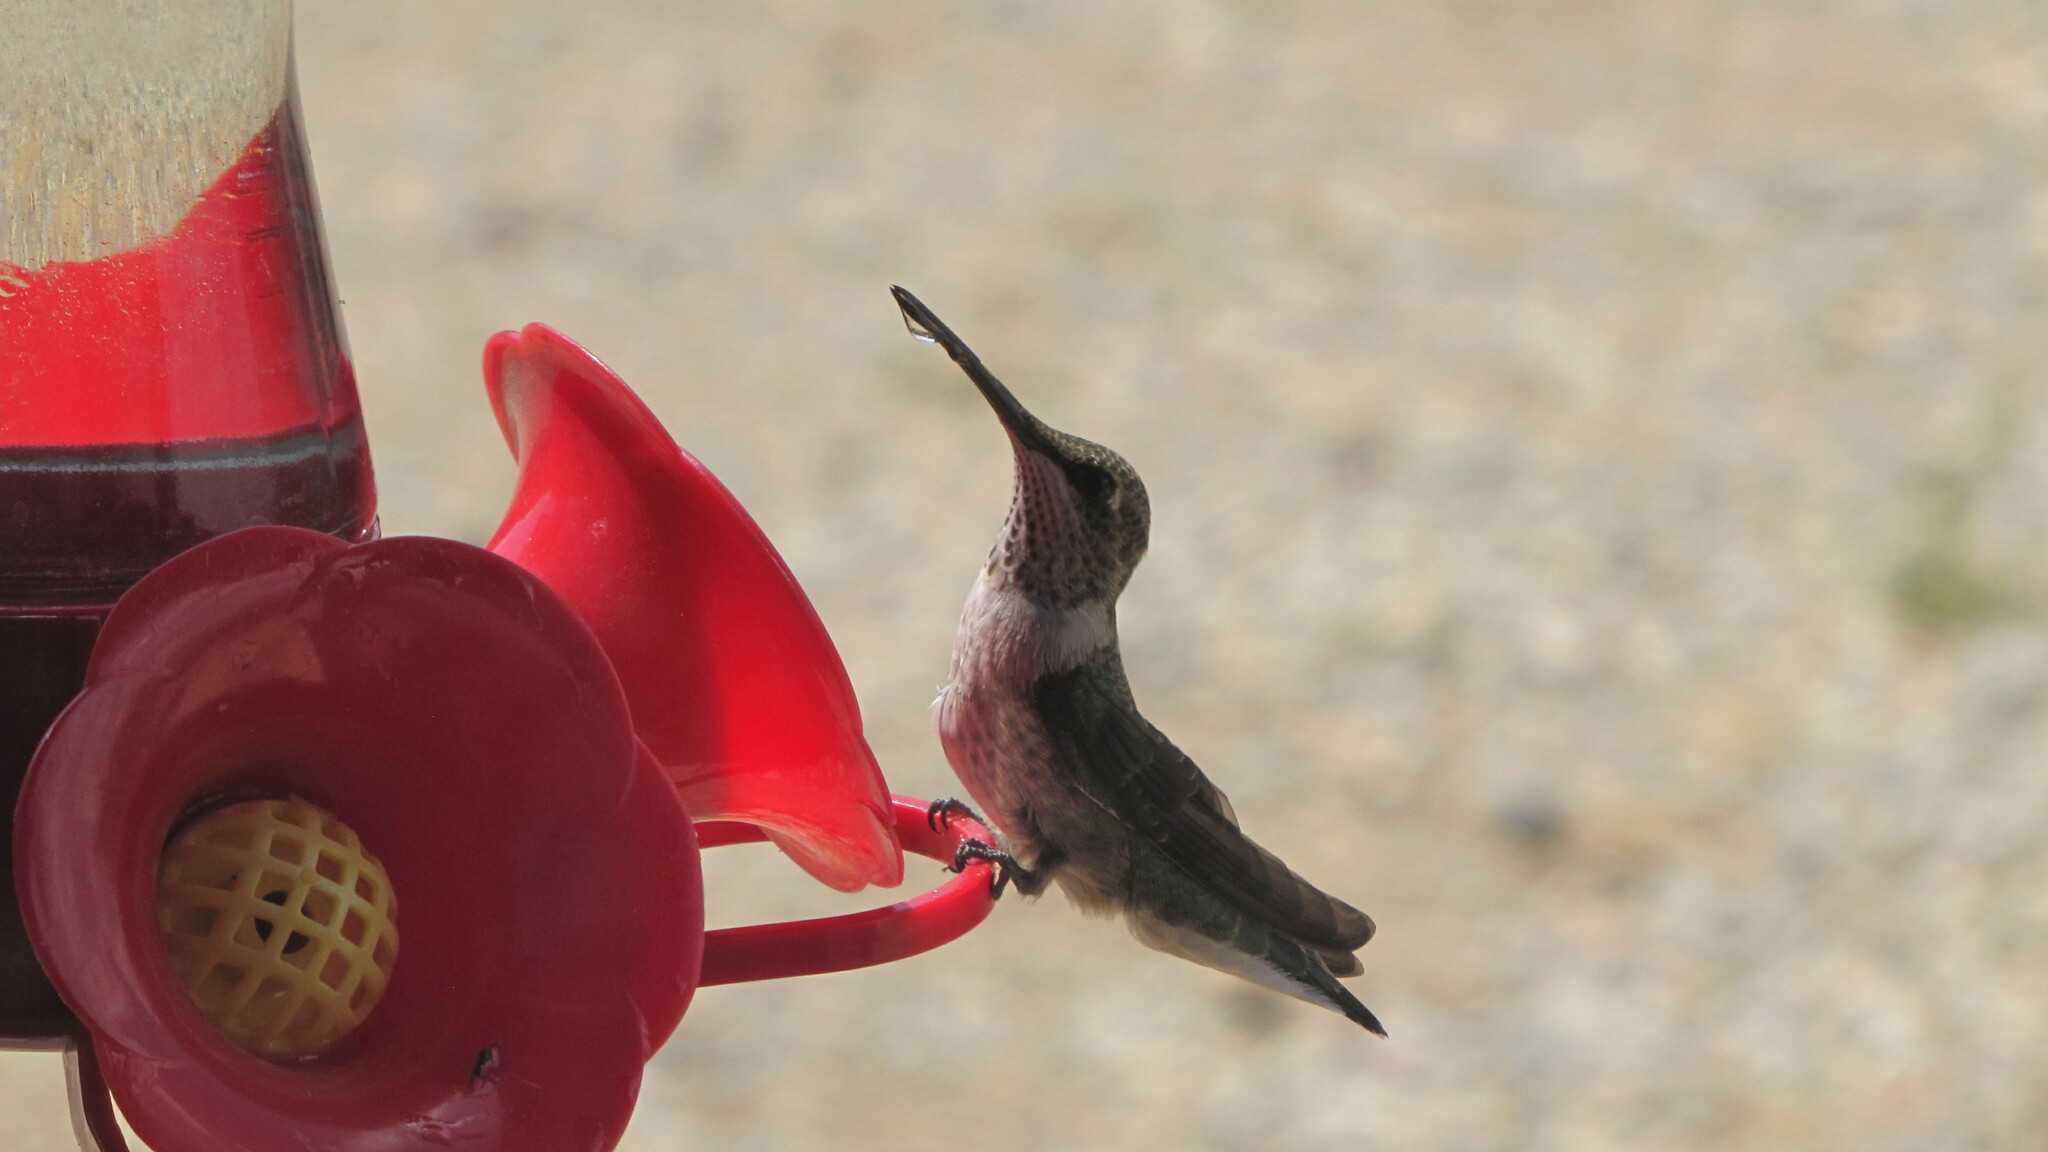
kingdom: Animalia
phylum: Chordata
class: Aves
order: Apodiformes
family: Trochilidae
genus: Archilochus
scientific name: Archilochus alexandri
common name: Black-chinned hummingbird
